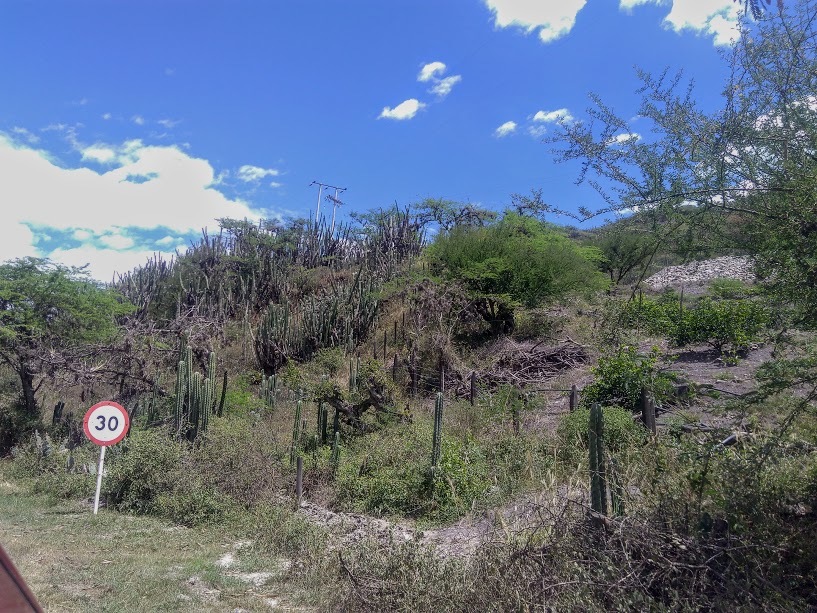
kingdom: Plantae
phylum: Tracheophyta
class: Magnoliopsida
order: Caryophyllales
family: Cactaceae
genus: Stenocereus
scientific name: Stenocereus griseus
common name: Tall candelabra cactus
